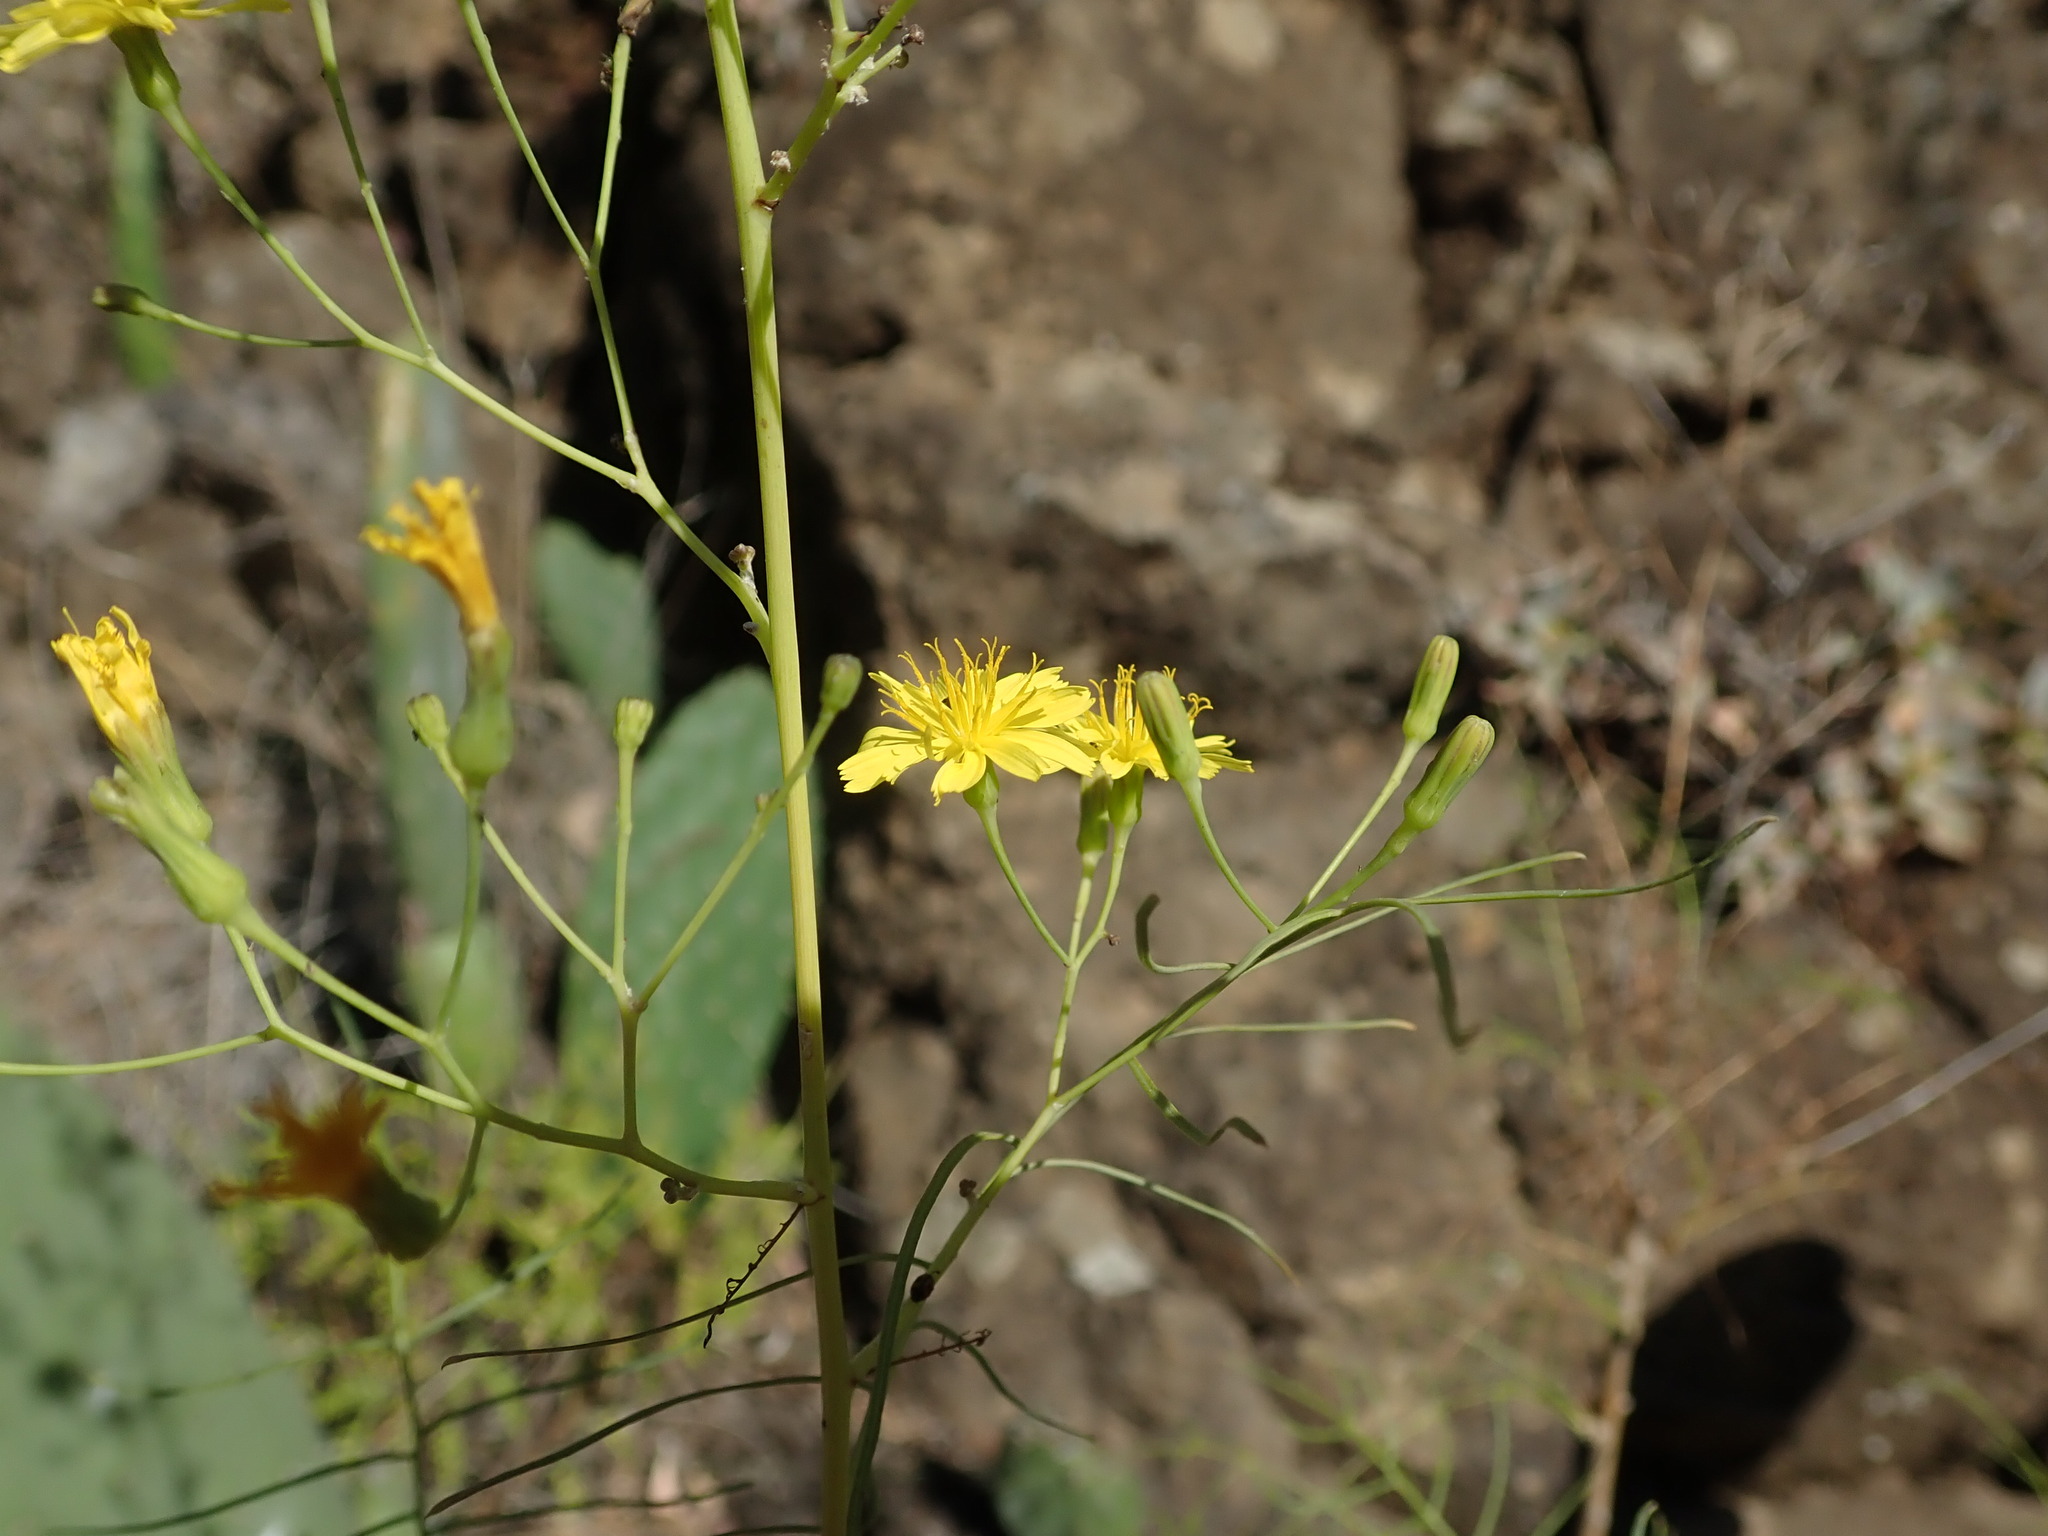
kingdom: Plantae
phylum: Tracheophyta
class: Magnoliopsida
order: Asterales
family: Asteraceae
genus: Sonchus
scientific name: Sonchus leptocephalus
